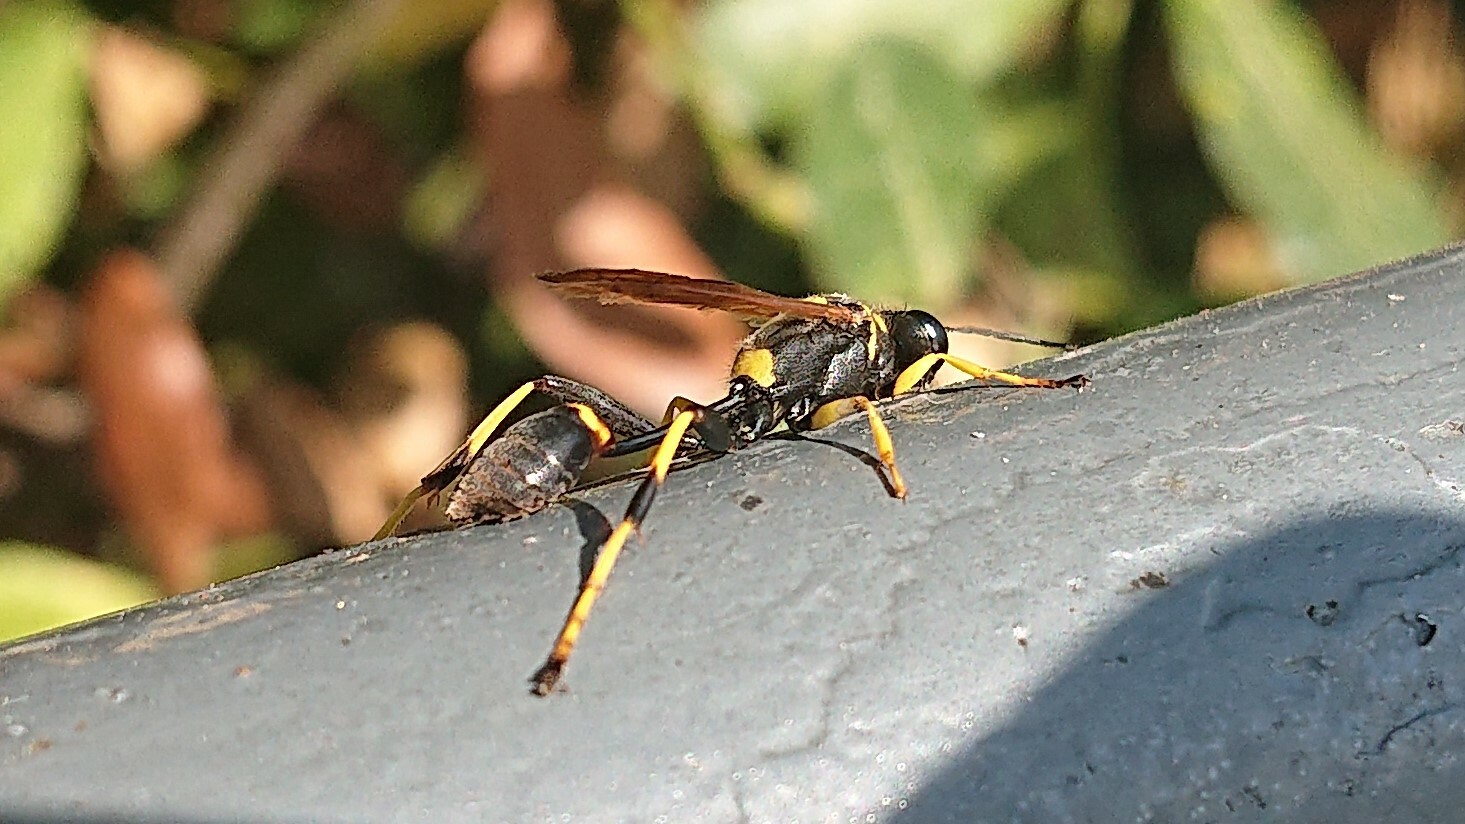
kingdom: Animalia
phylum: Arthropoda
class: Insecta
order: Hymenoptera
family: Sphecidae
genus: Sceliphron
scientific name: Sceliphron caementarium
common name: Mud dauber
